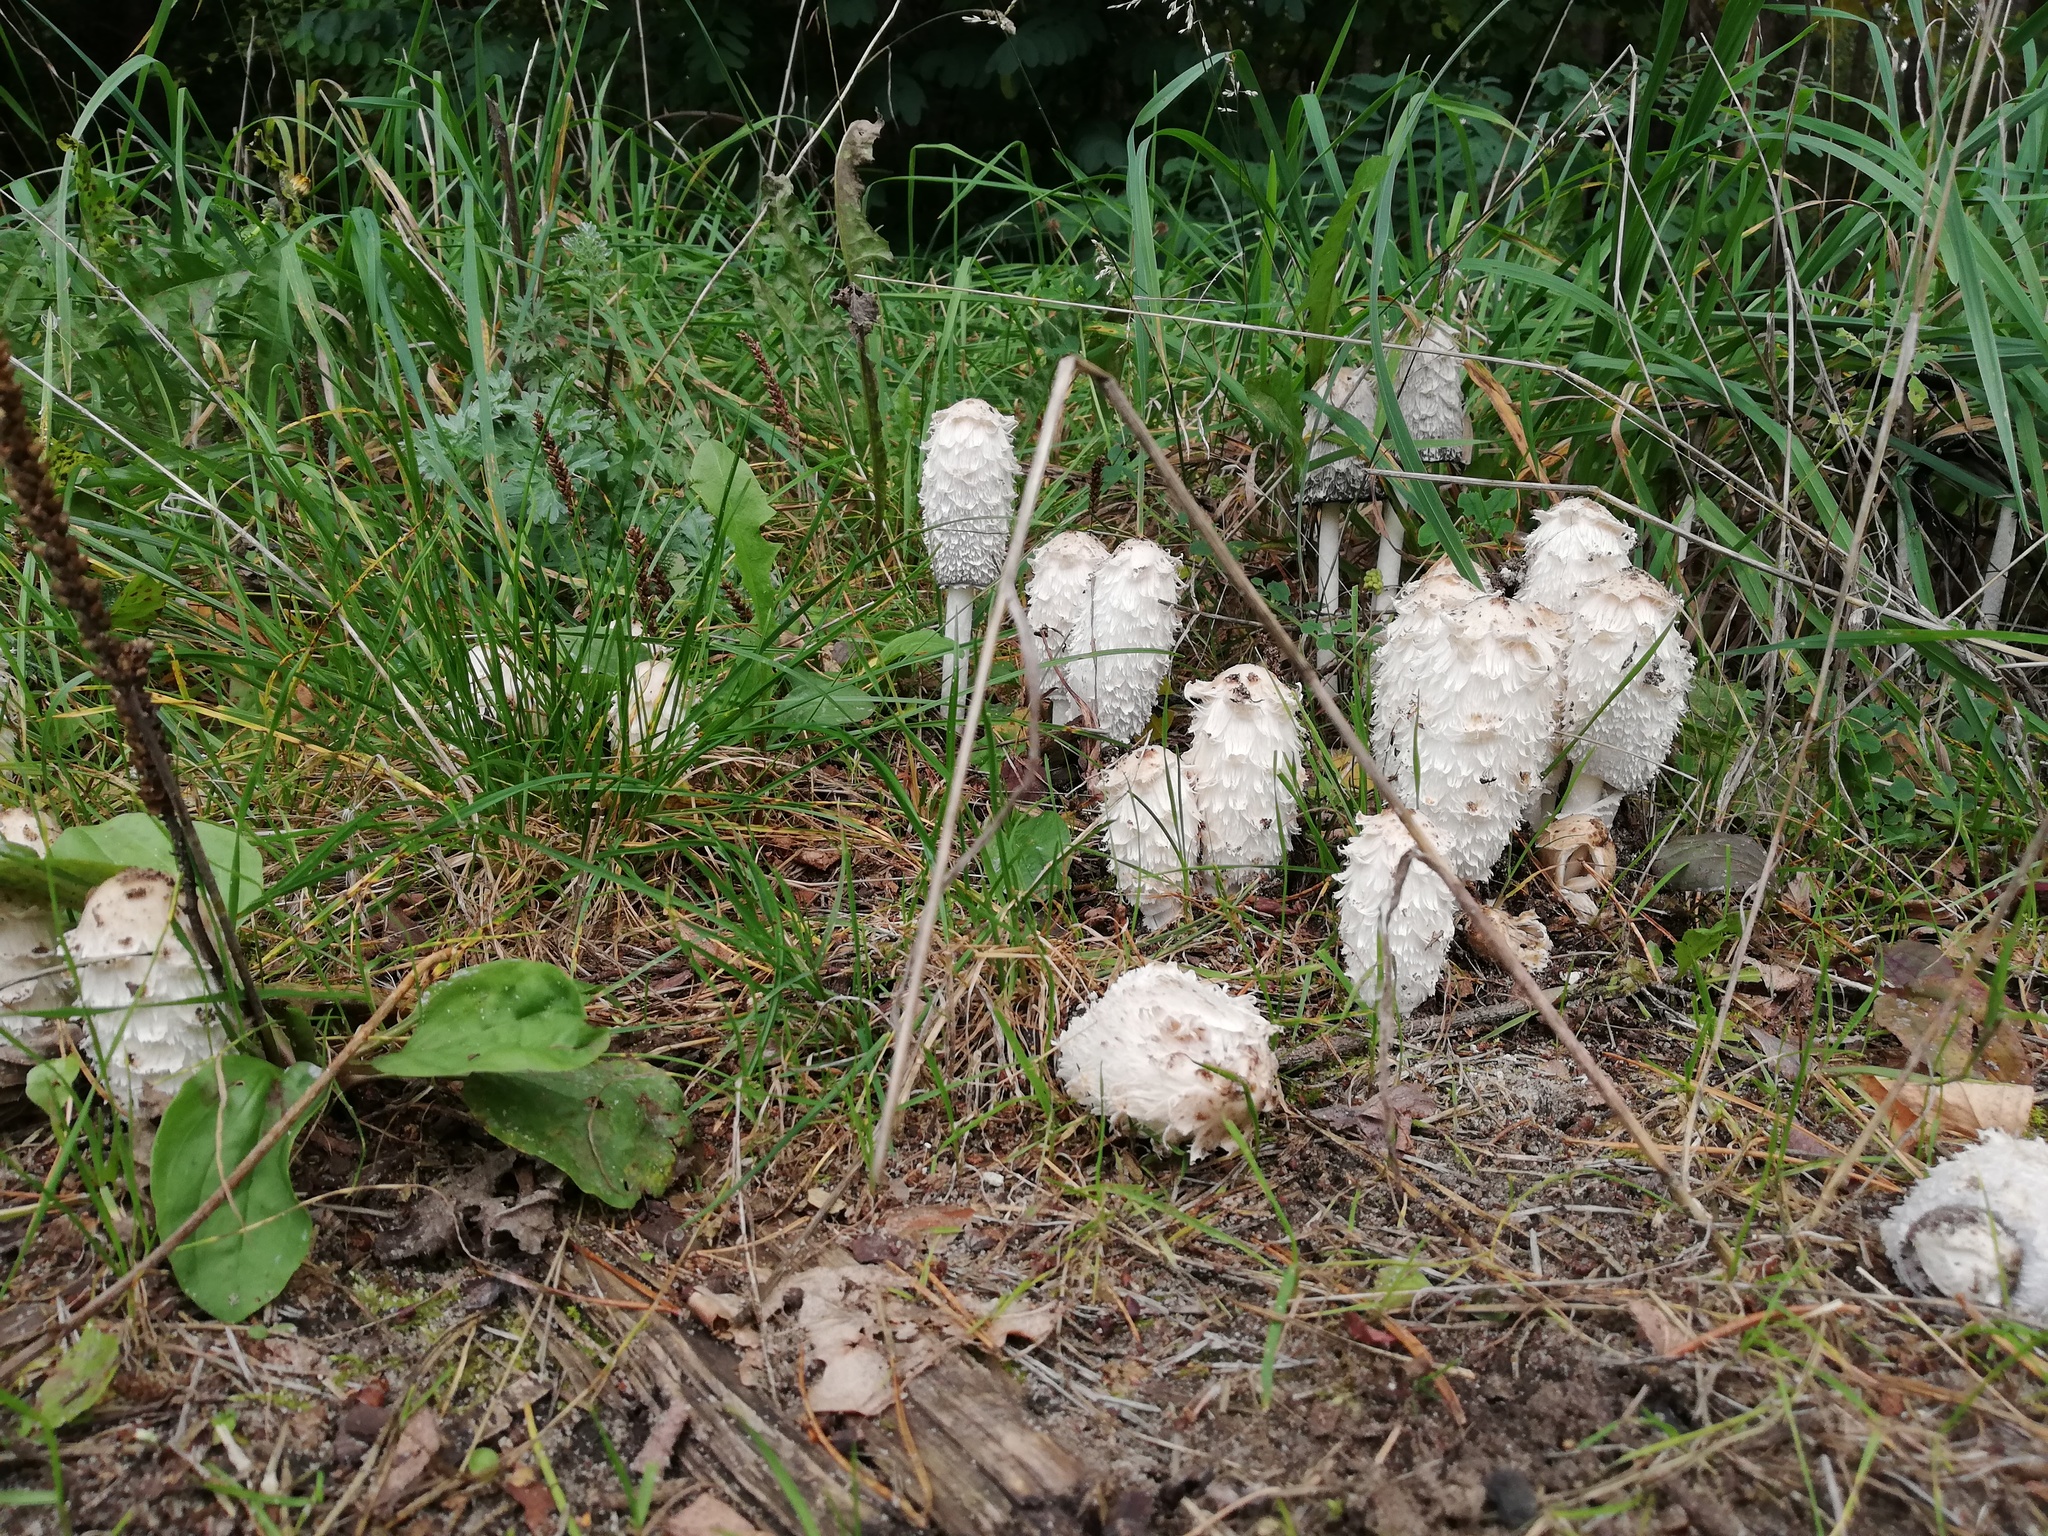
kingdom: Fungi
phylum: Basidiomycota
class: Agaricomycetes
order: Agaricales
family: Agaricaceae
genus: Coprinus
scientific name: Coprinus comatus
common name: Lawyer's wig
